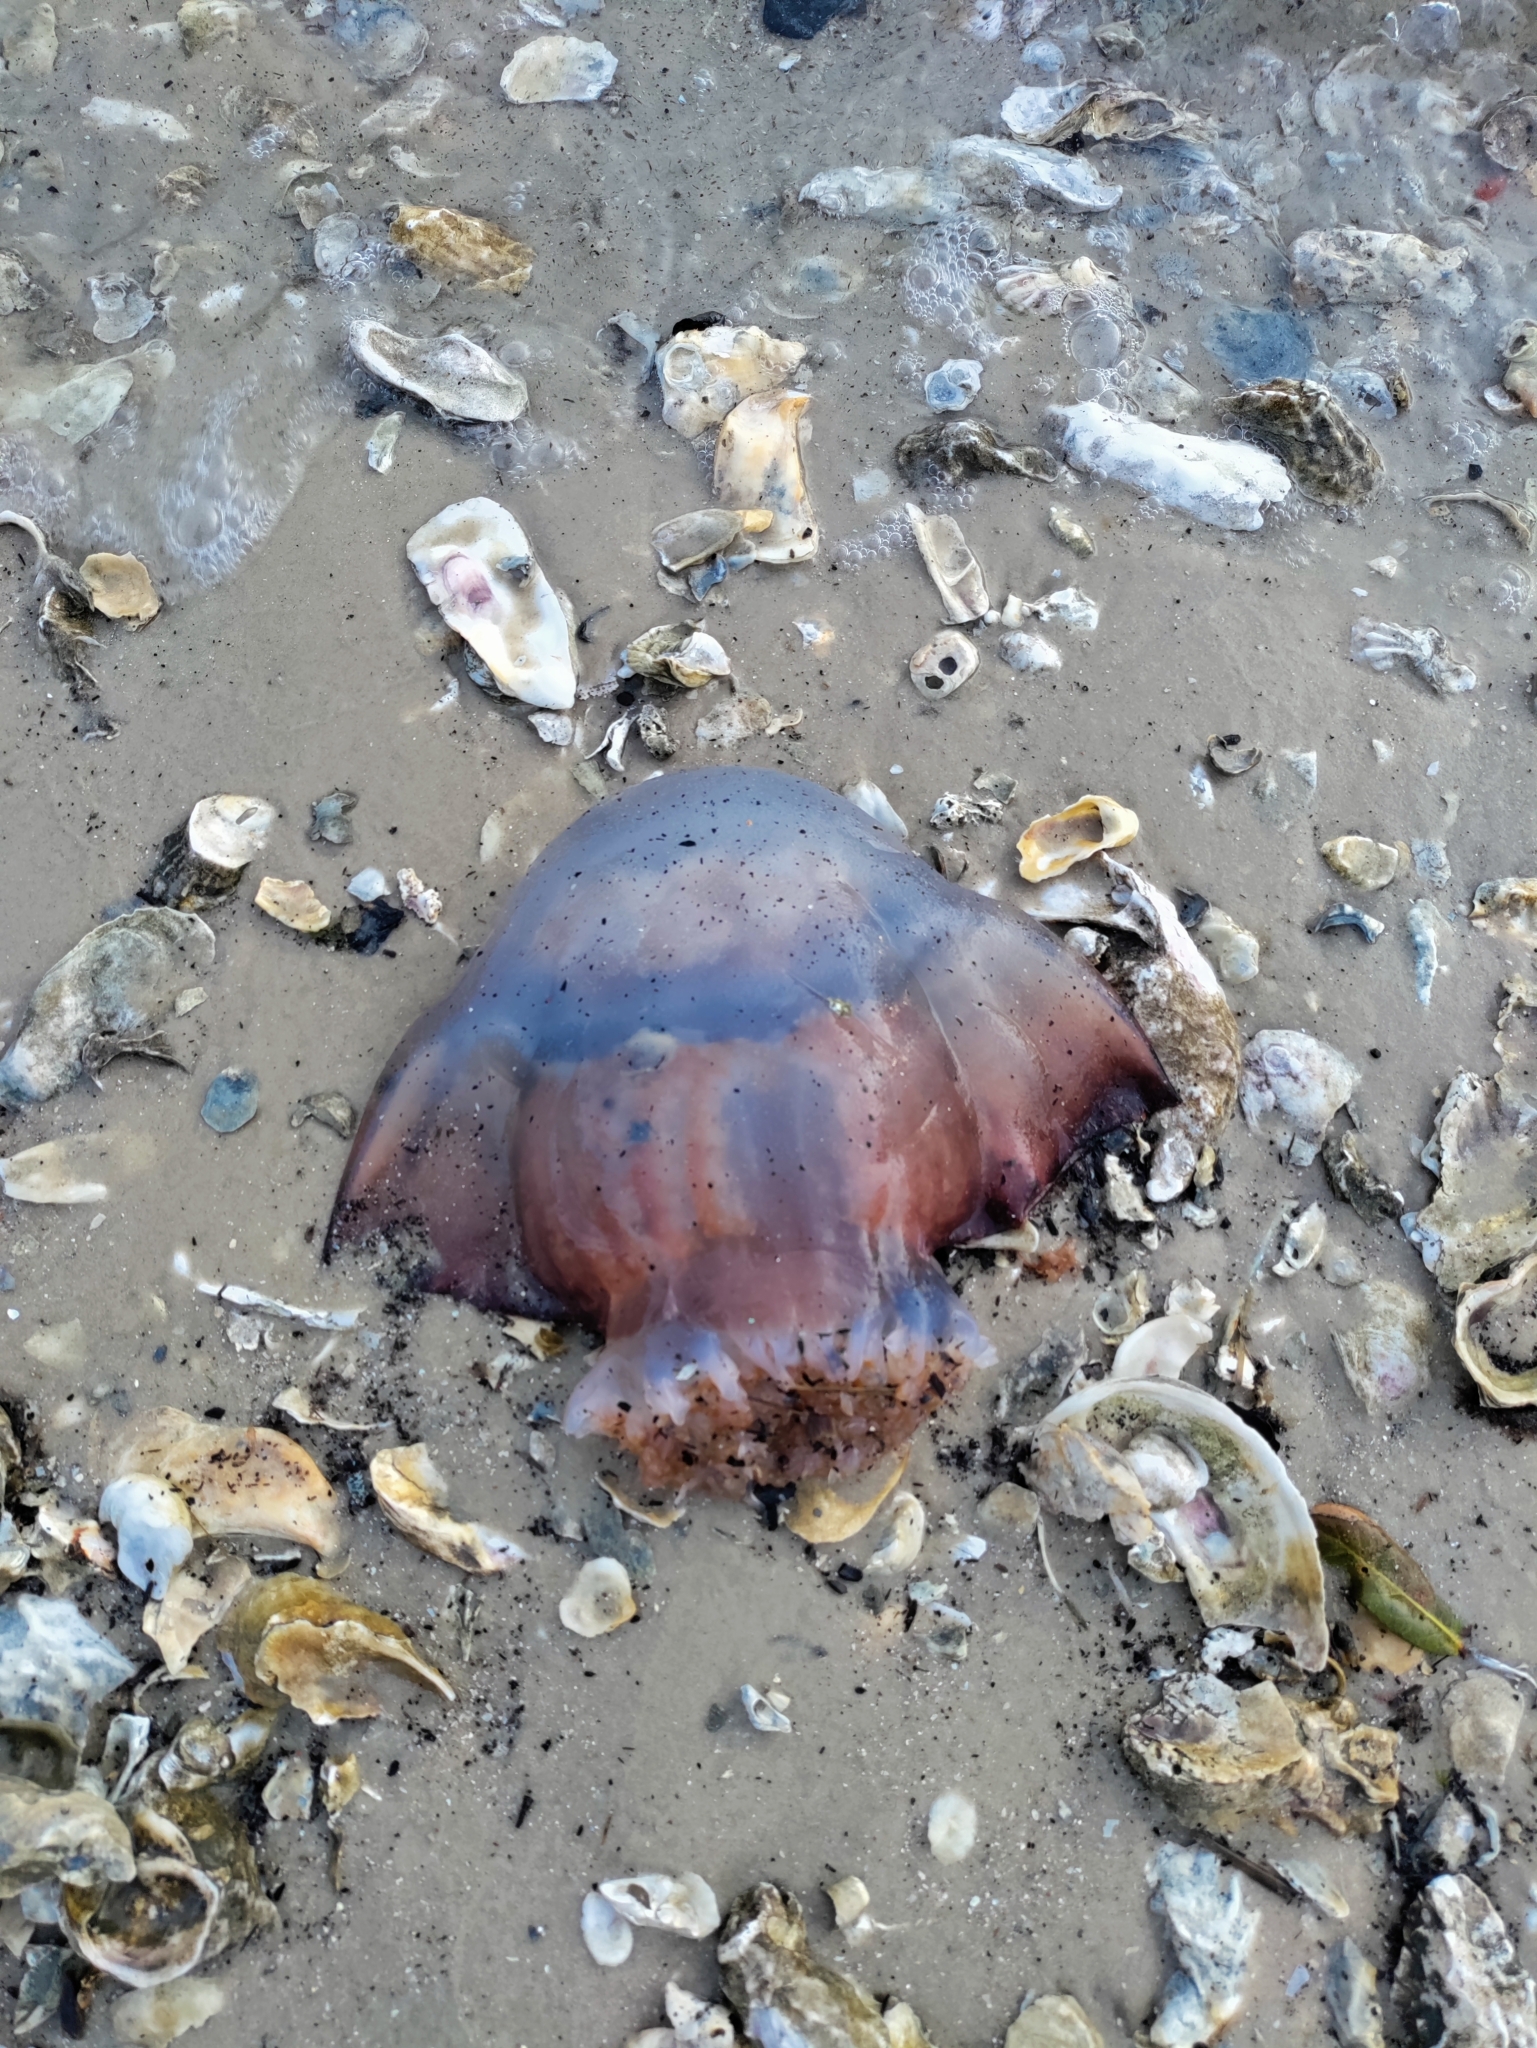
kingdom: Animalia
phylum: Cnidaria
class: Scyphozoa
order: Rhizostomeae
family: Stomolophidae
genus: Stomolophus
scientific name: Stomolophus meleagris
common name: Cabbagehead
